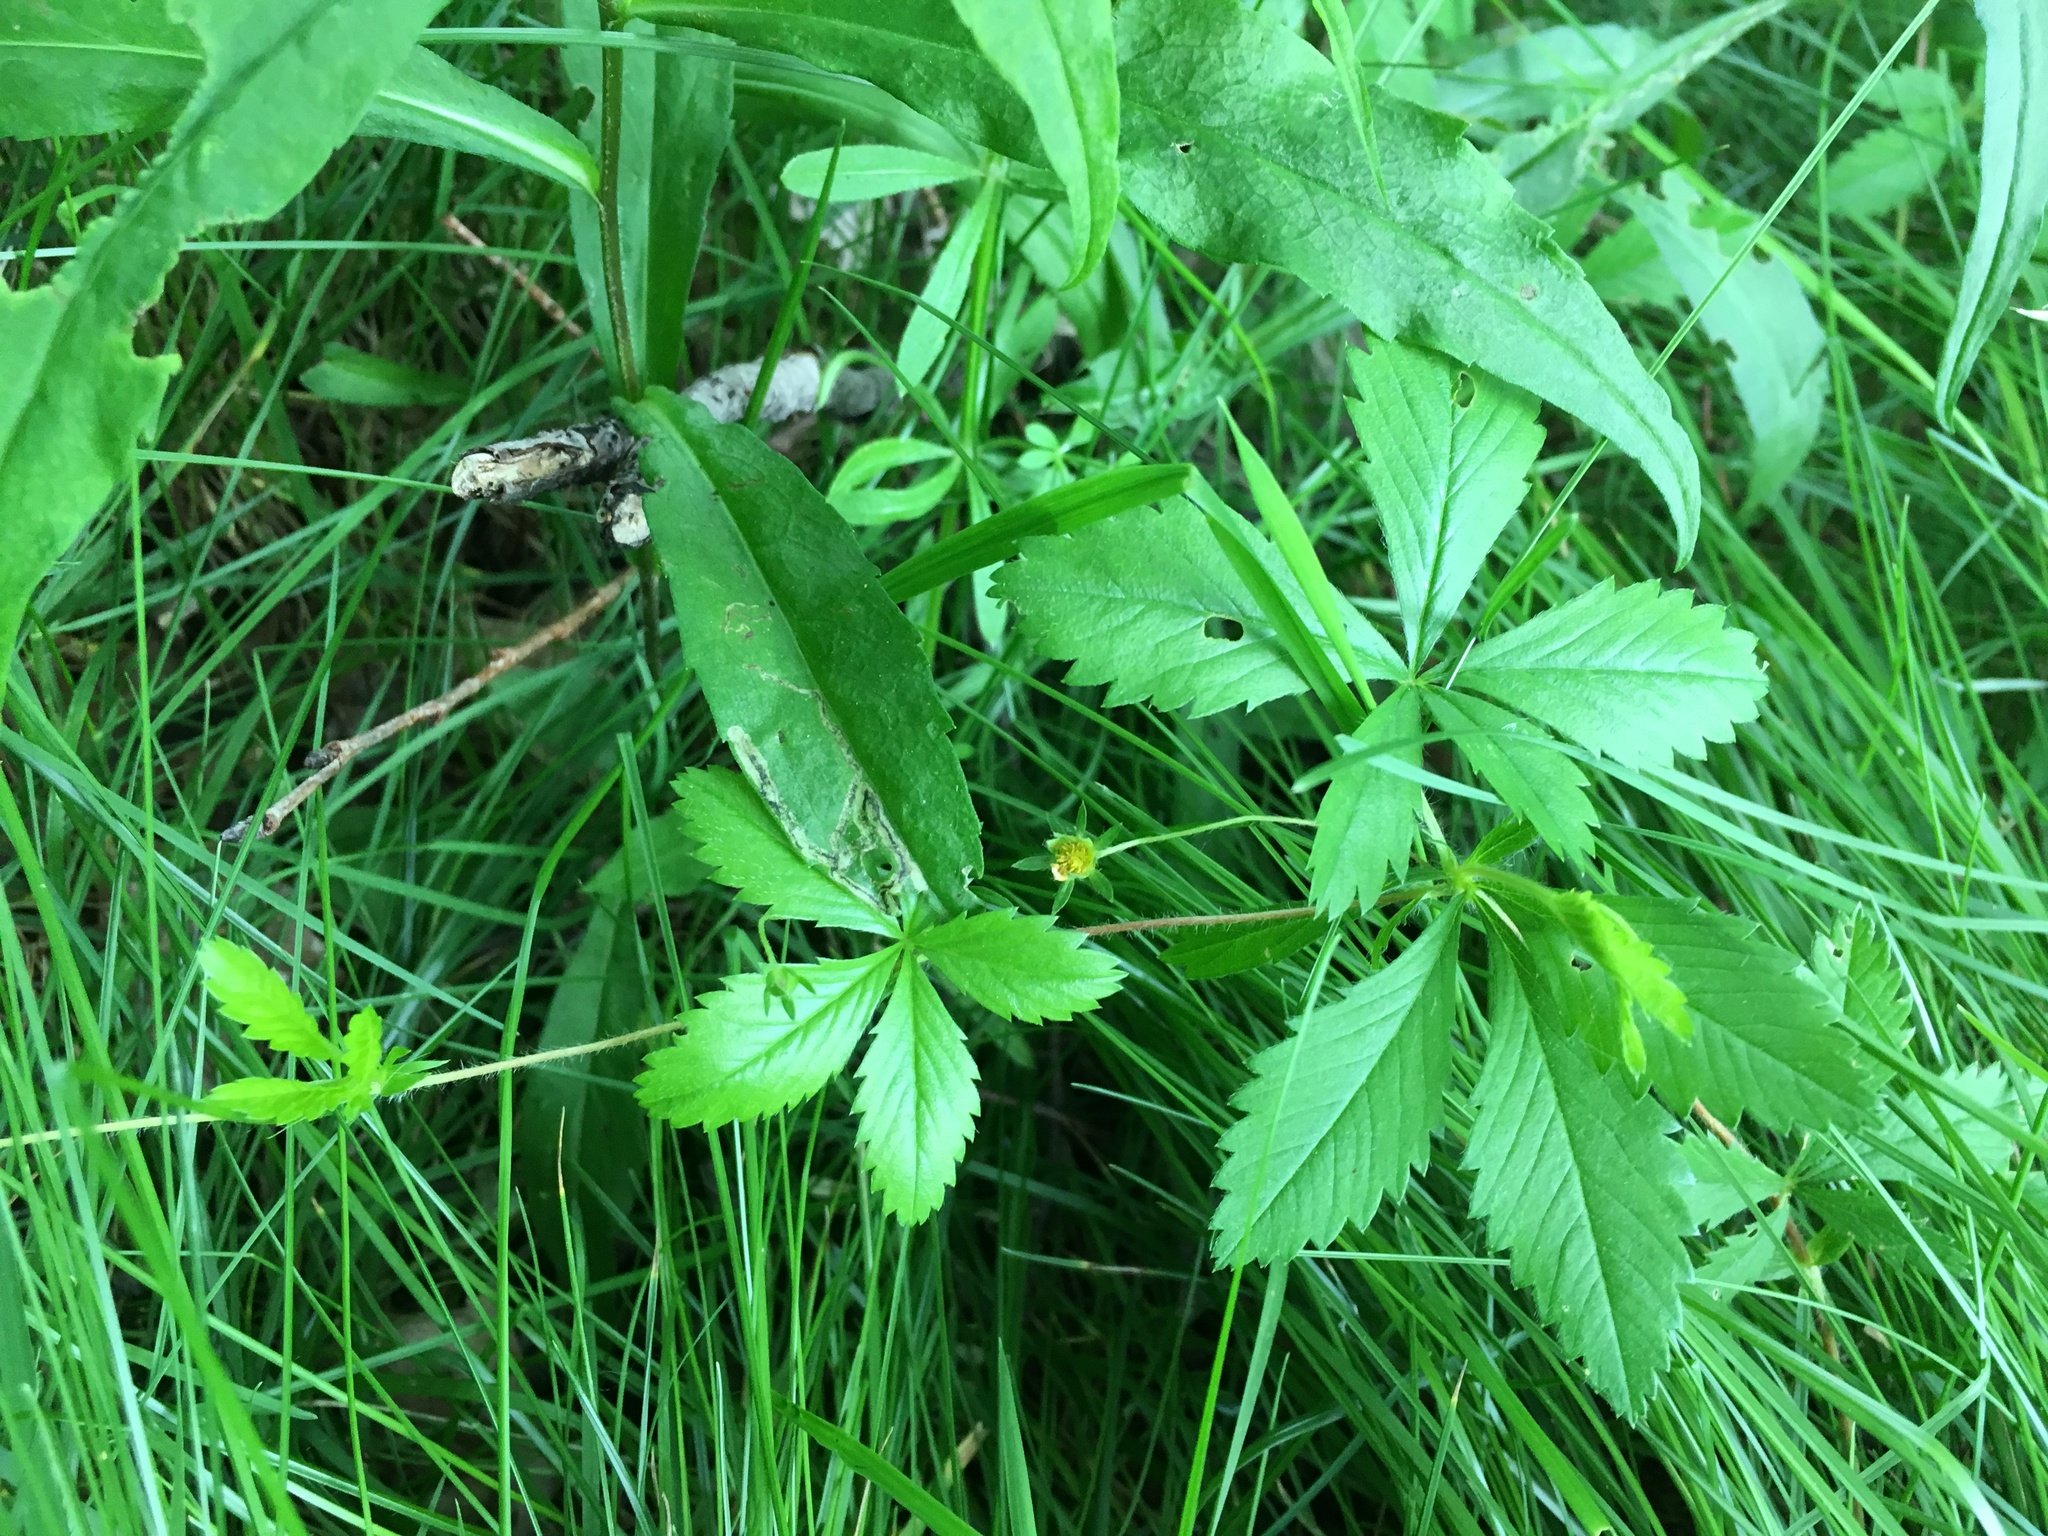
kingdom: Plantae
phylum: Tracheophyta
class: Magnoliopsida
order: Rosales
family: Rosaceae
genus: Potentilla
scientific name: Potentilla simplex
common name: Old field cinquefoil
